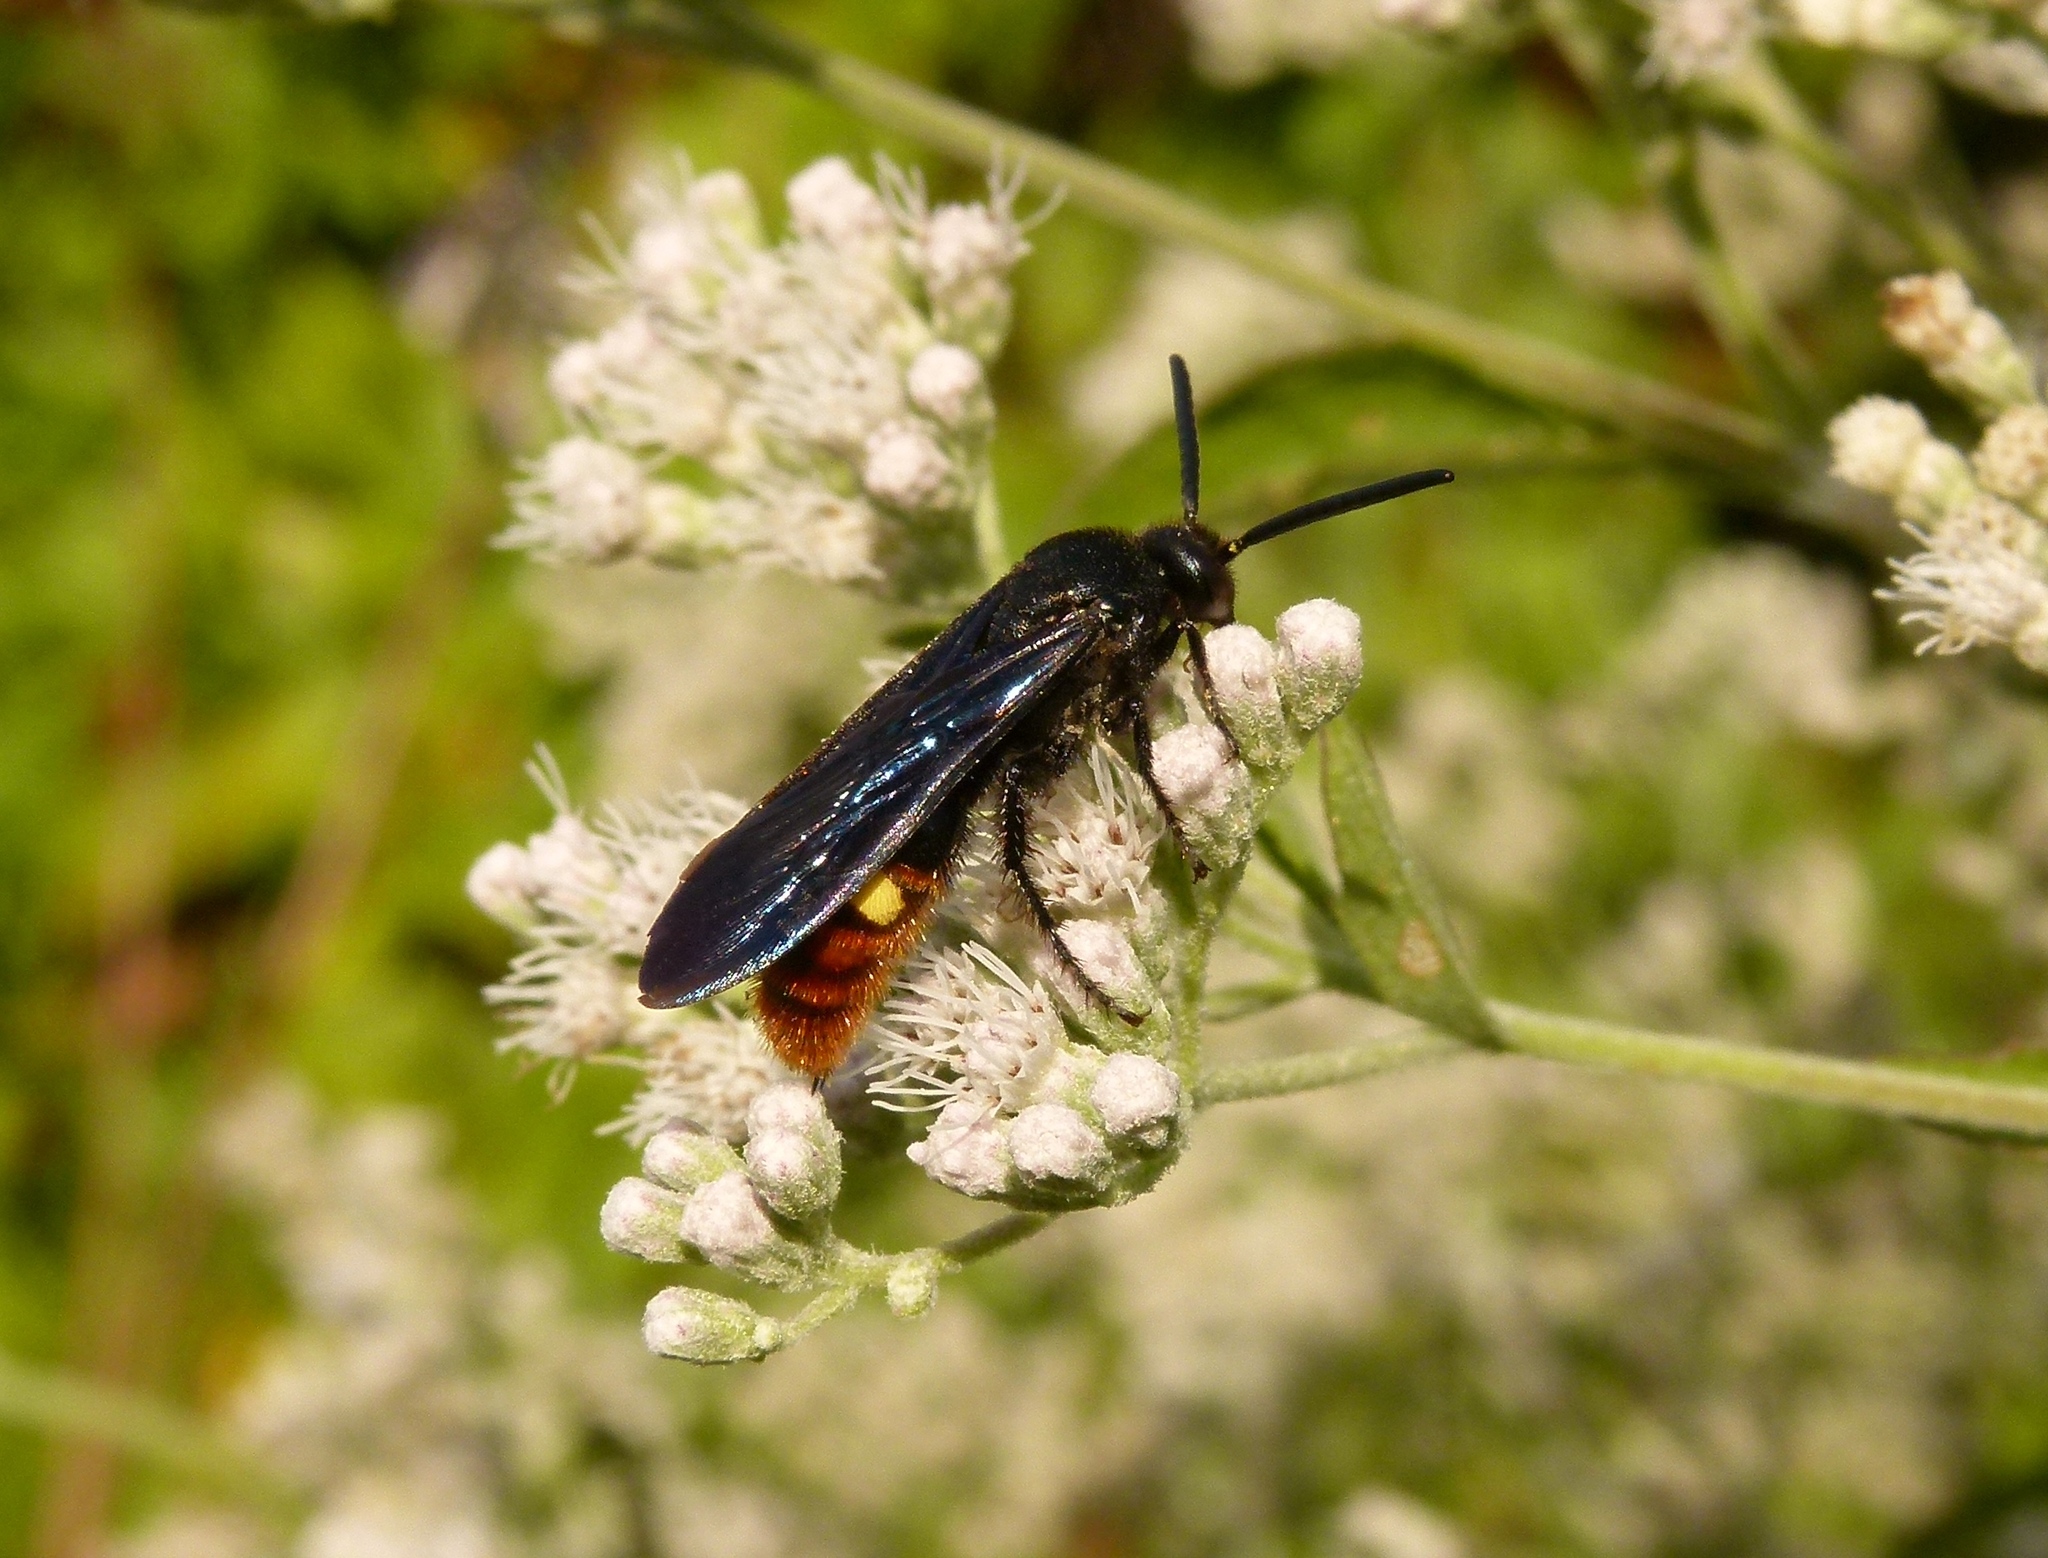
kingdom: Animalia
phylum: Arthropoda
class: Insecta
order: Hymenoptera
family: Scoliidae
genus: Scolia
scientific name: Scolia dubia
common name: Blue-winged scoliid wasp
